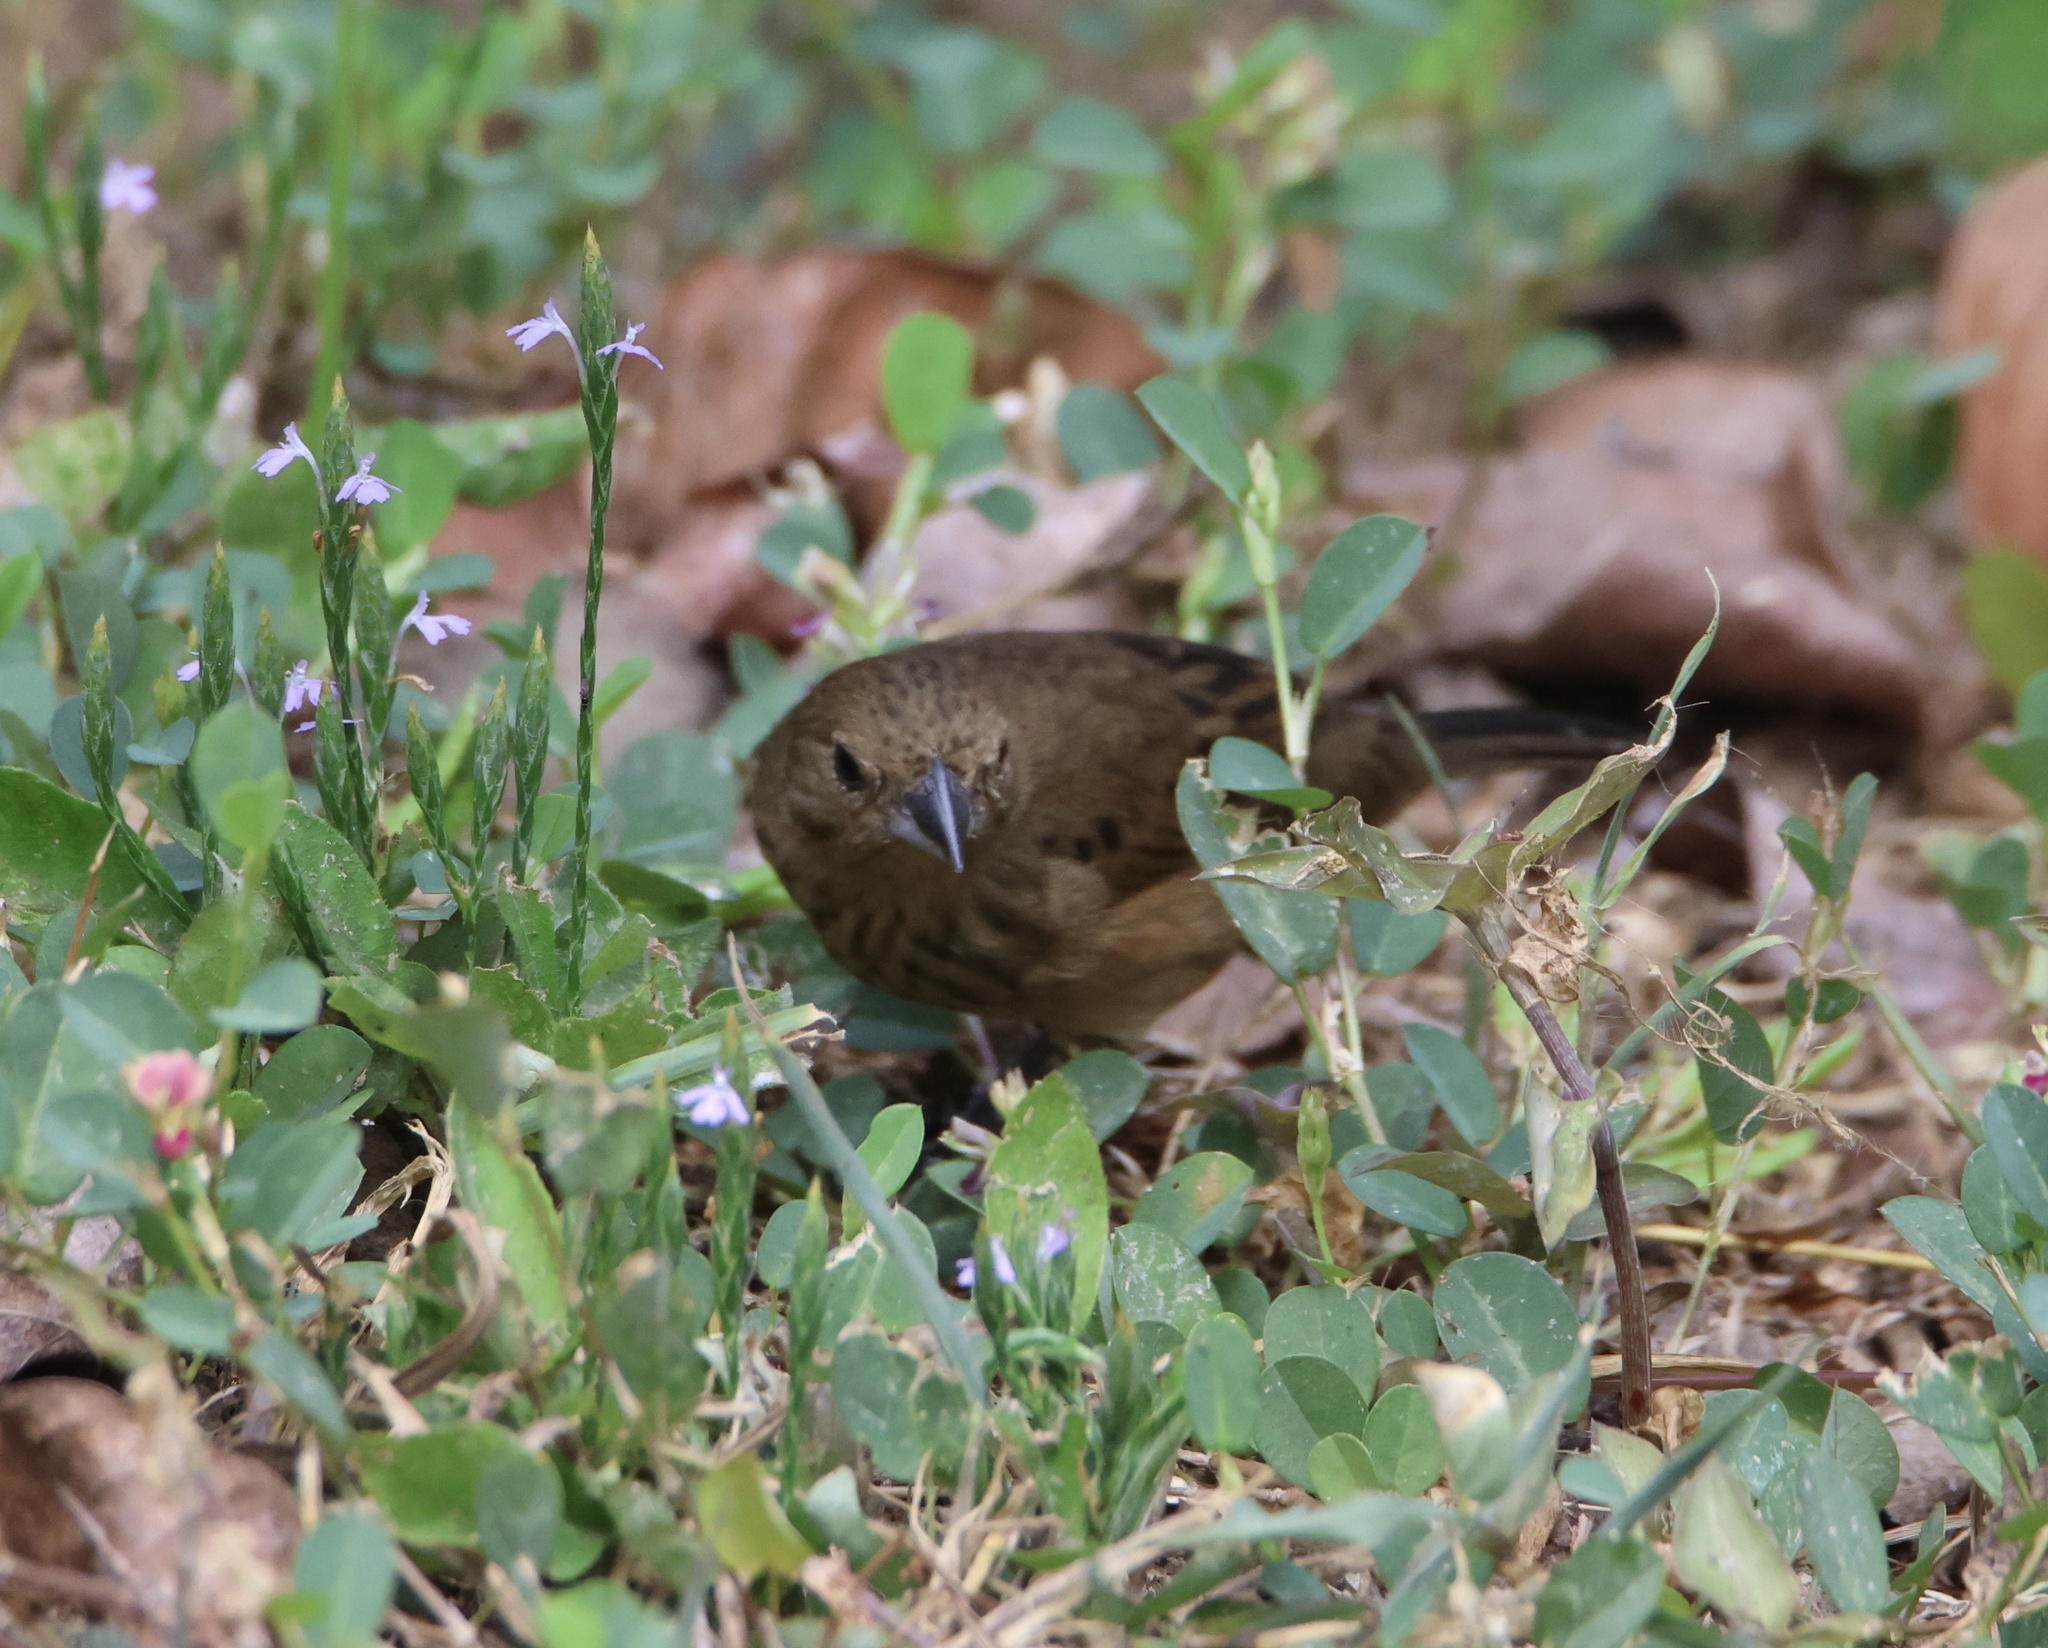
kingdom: Animalia
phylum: Chordata
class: Aves
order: Passeriformes
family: Thraupidae
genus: Volatinia
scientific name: Volatinia jacarina
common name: Blue-black grassquit
